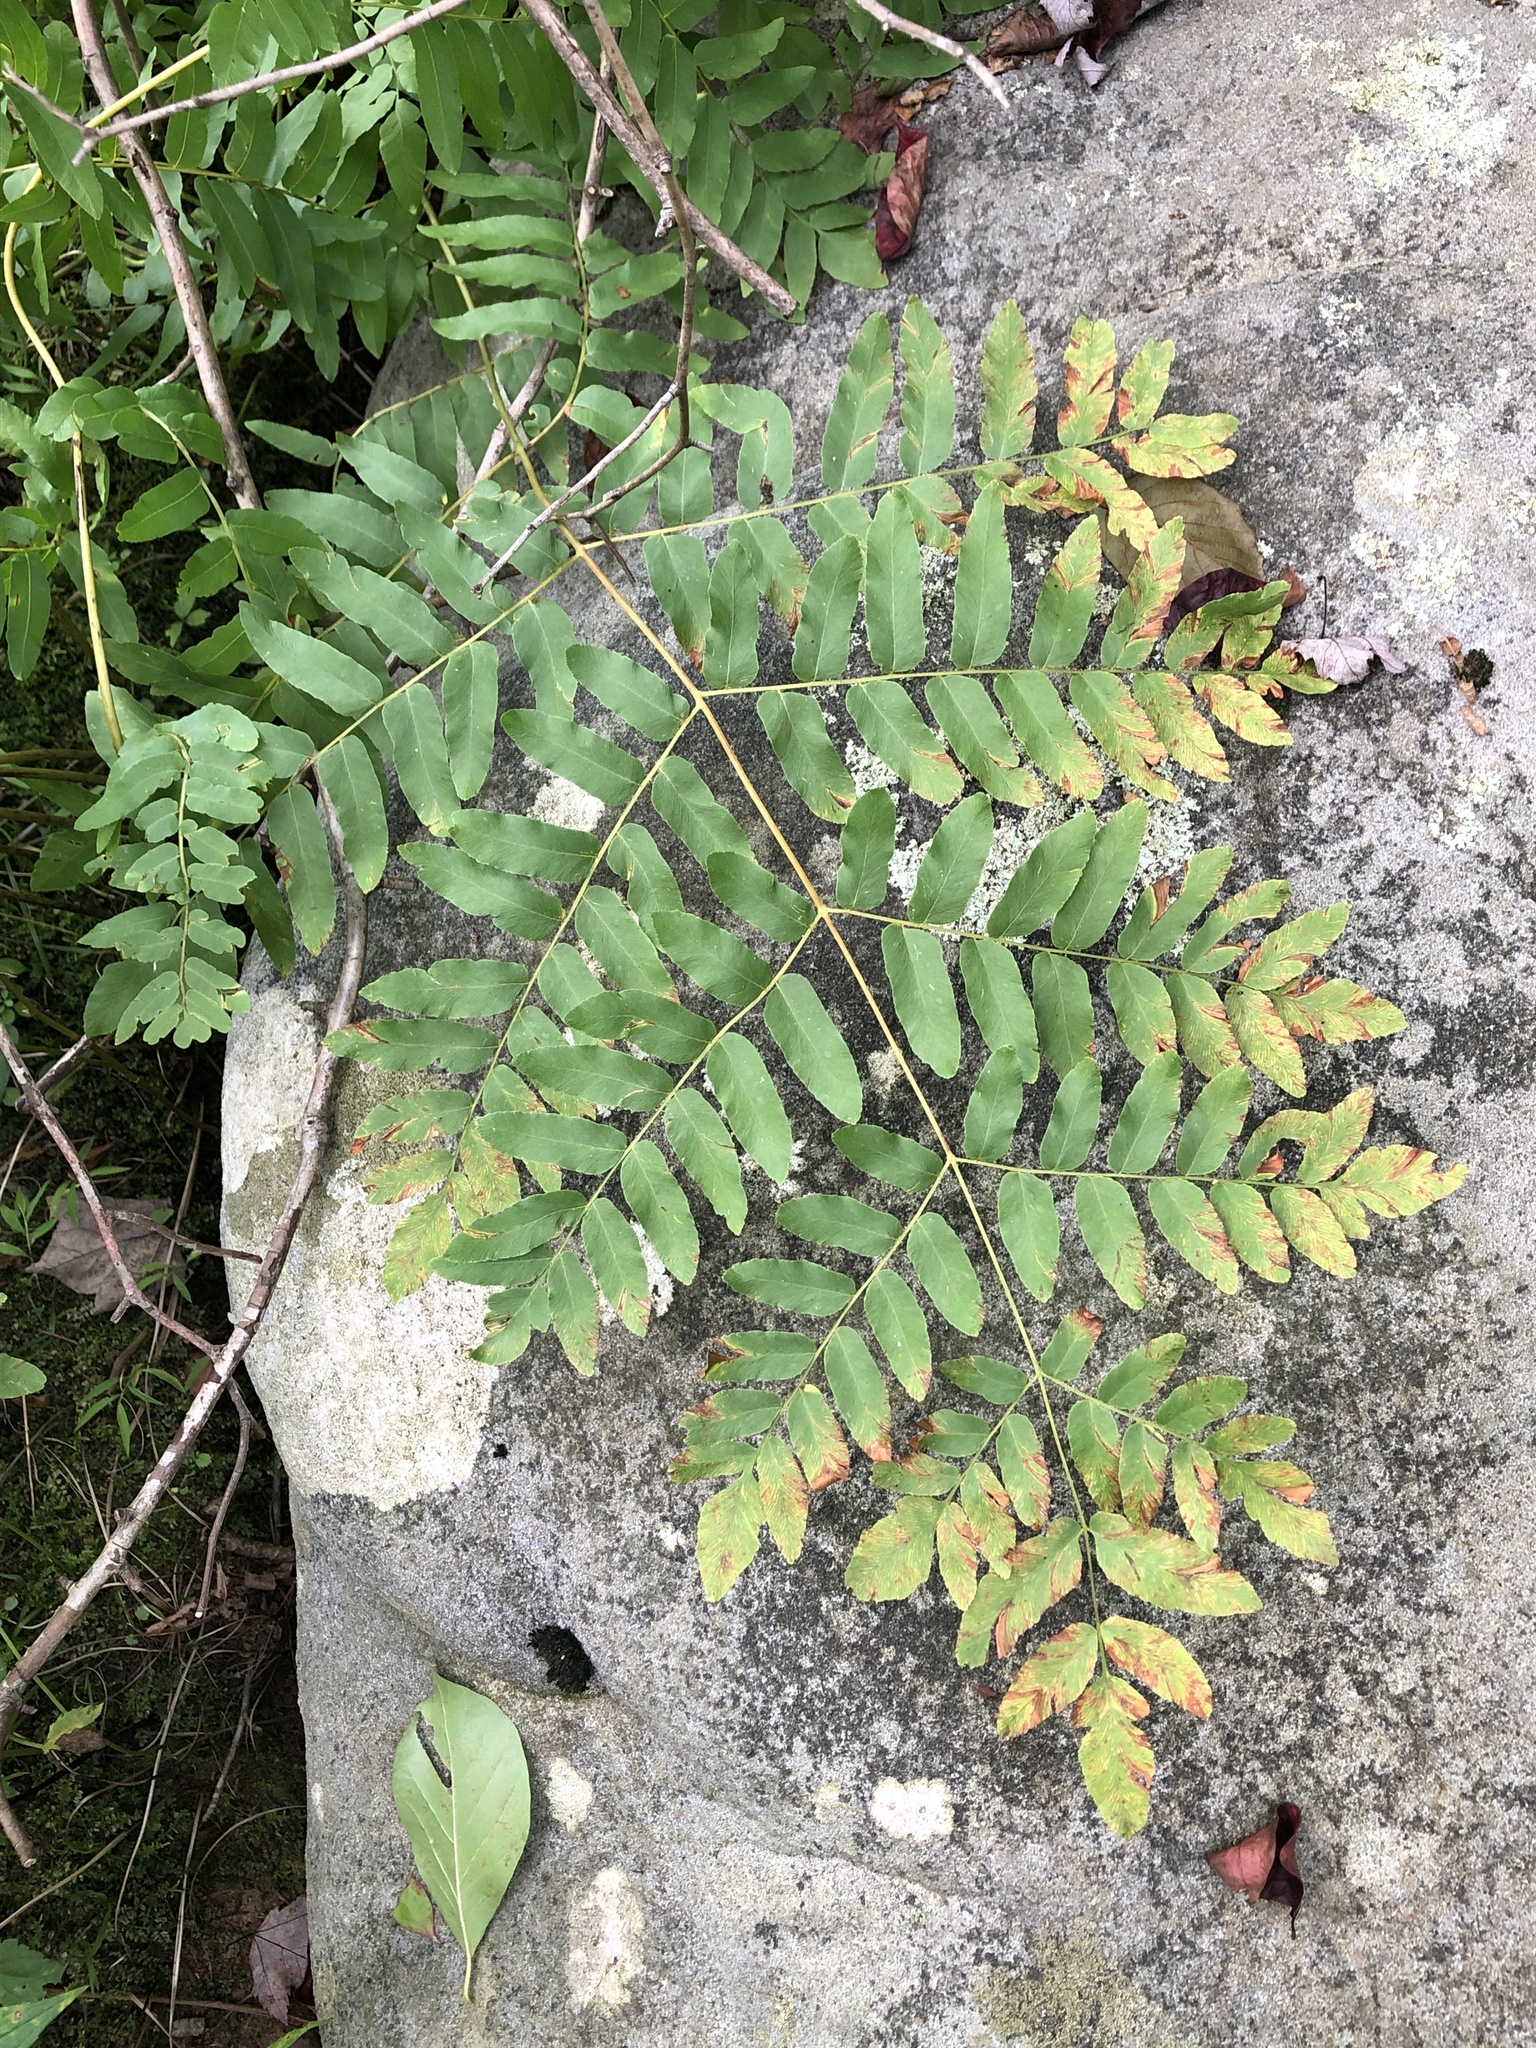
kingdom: Plantae
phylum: Tracheophyta
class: Polypodiopsida
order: Osmundales
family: Osmundaceae
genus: Osmunda
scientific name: Osmunda spectabilis
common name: American royal fern
